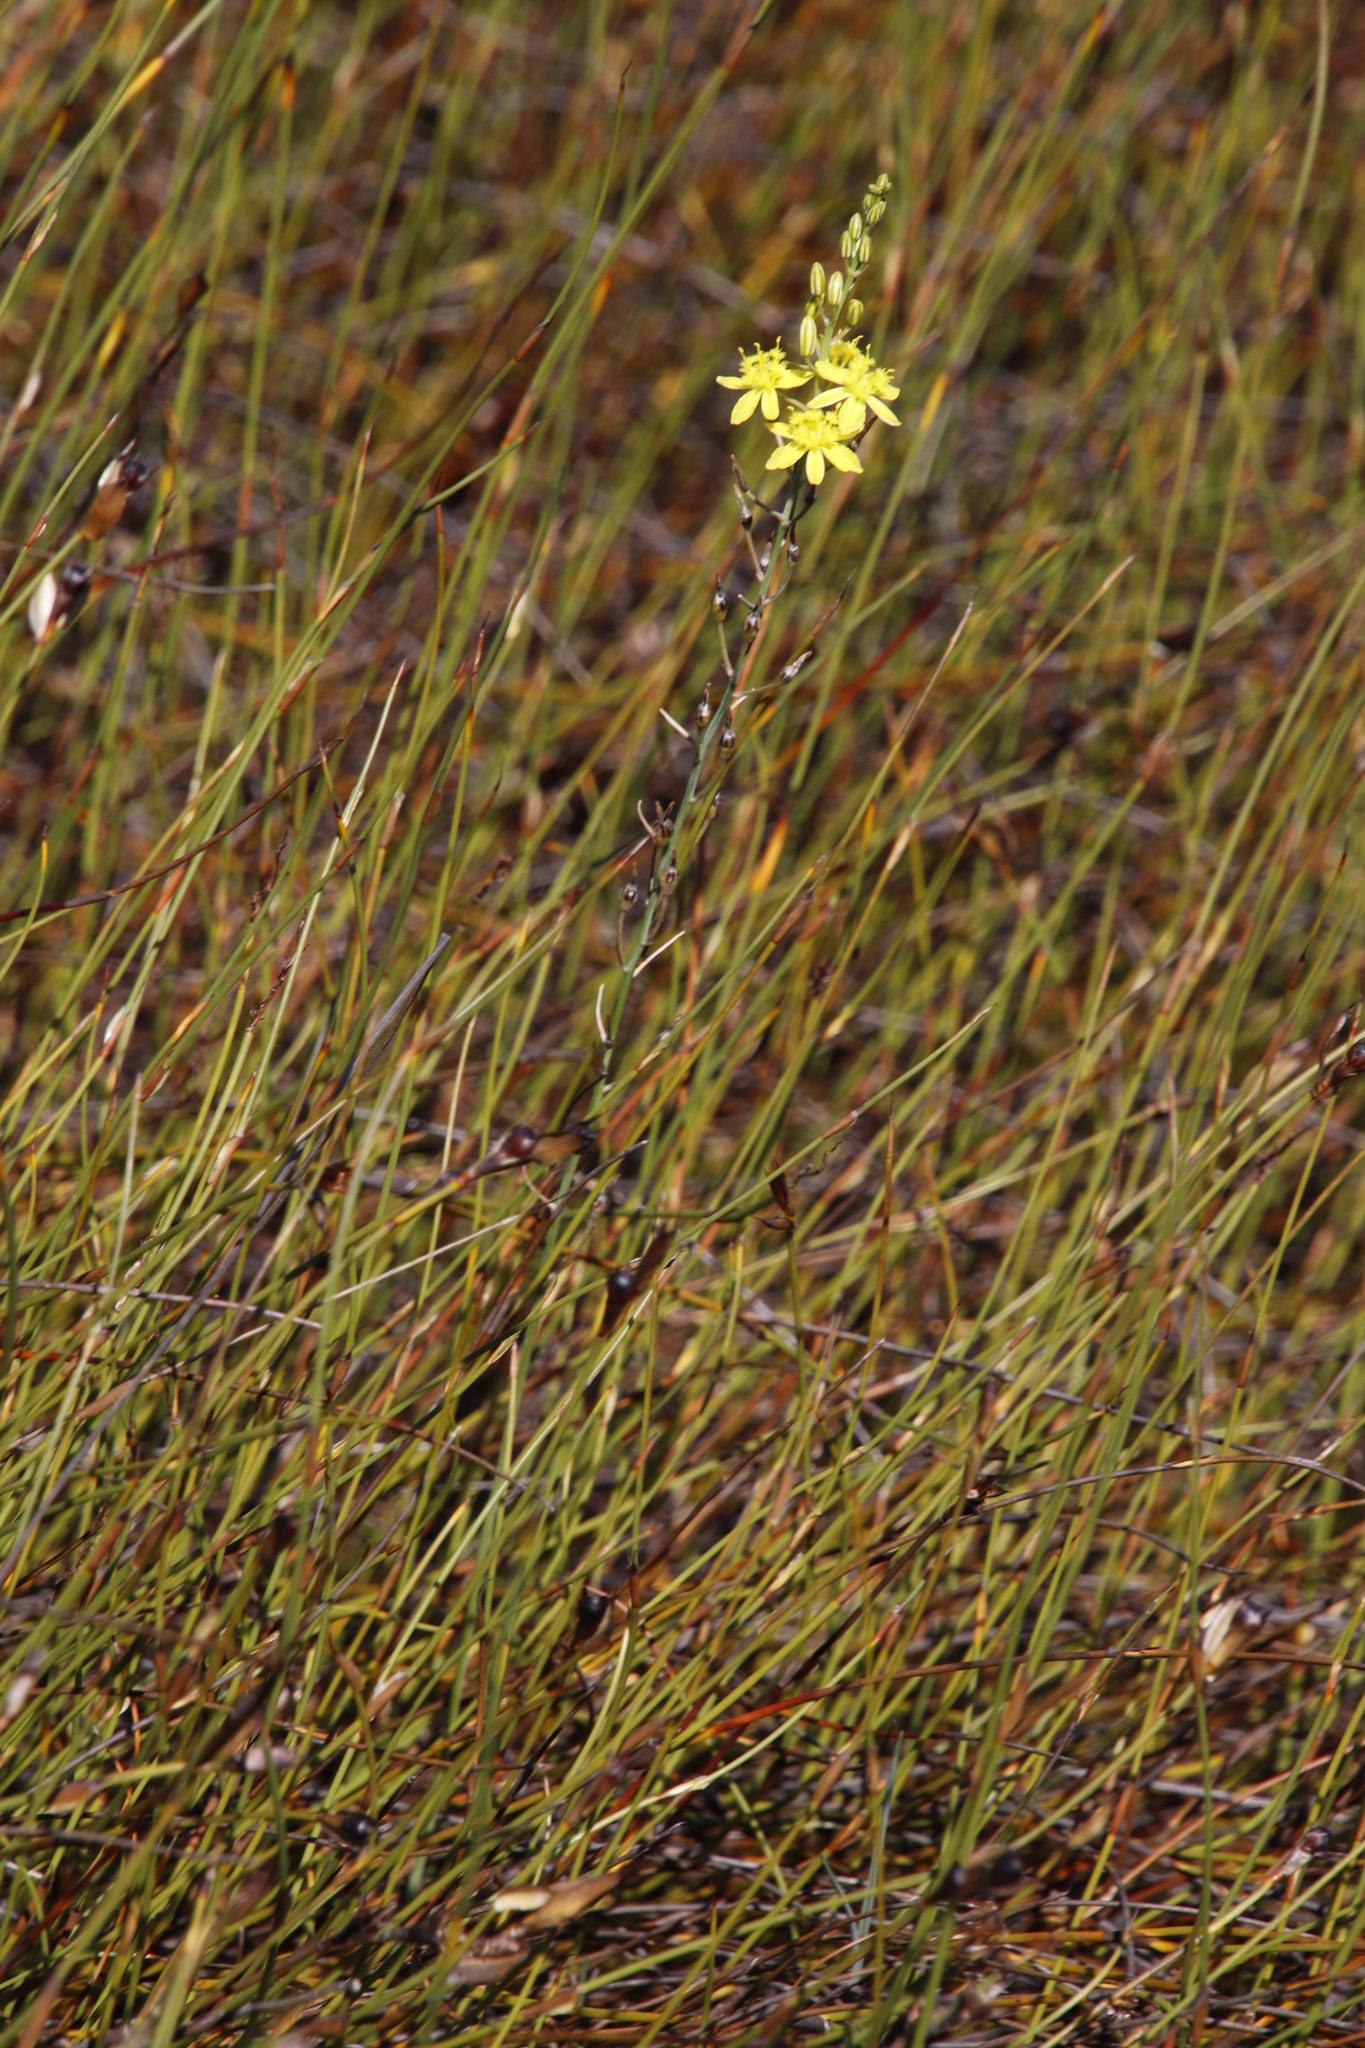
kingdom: Plantae
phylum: Tracheophyta
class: Liliopsida
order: Asparagales
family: Asphodelaceae
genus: Bulbine
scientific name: Bulbine favosa
